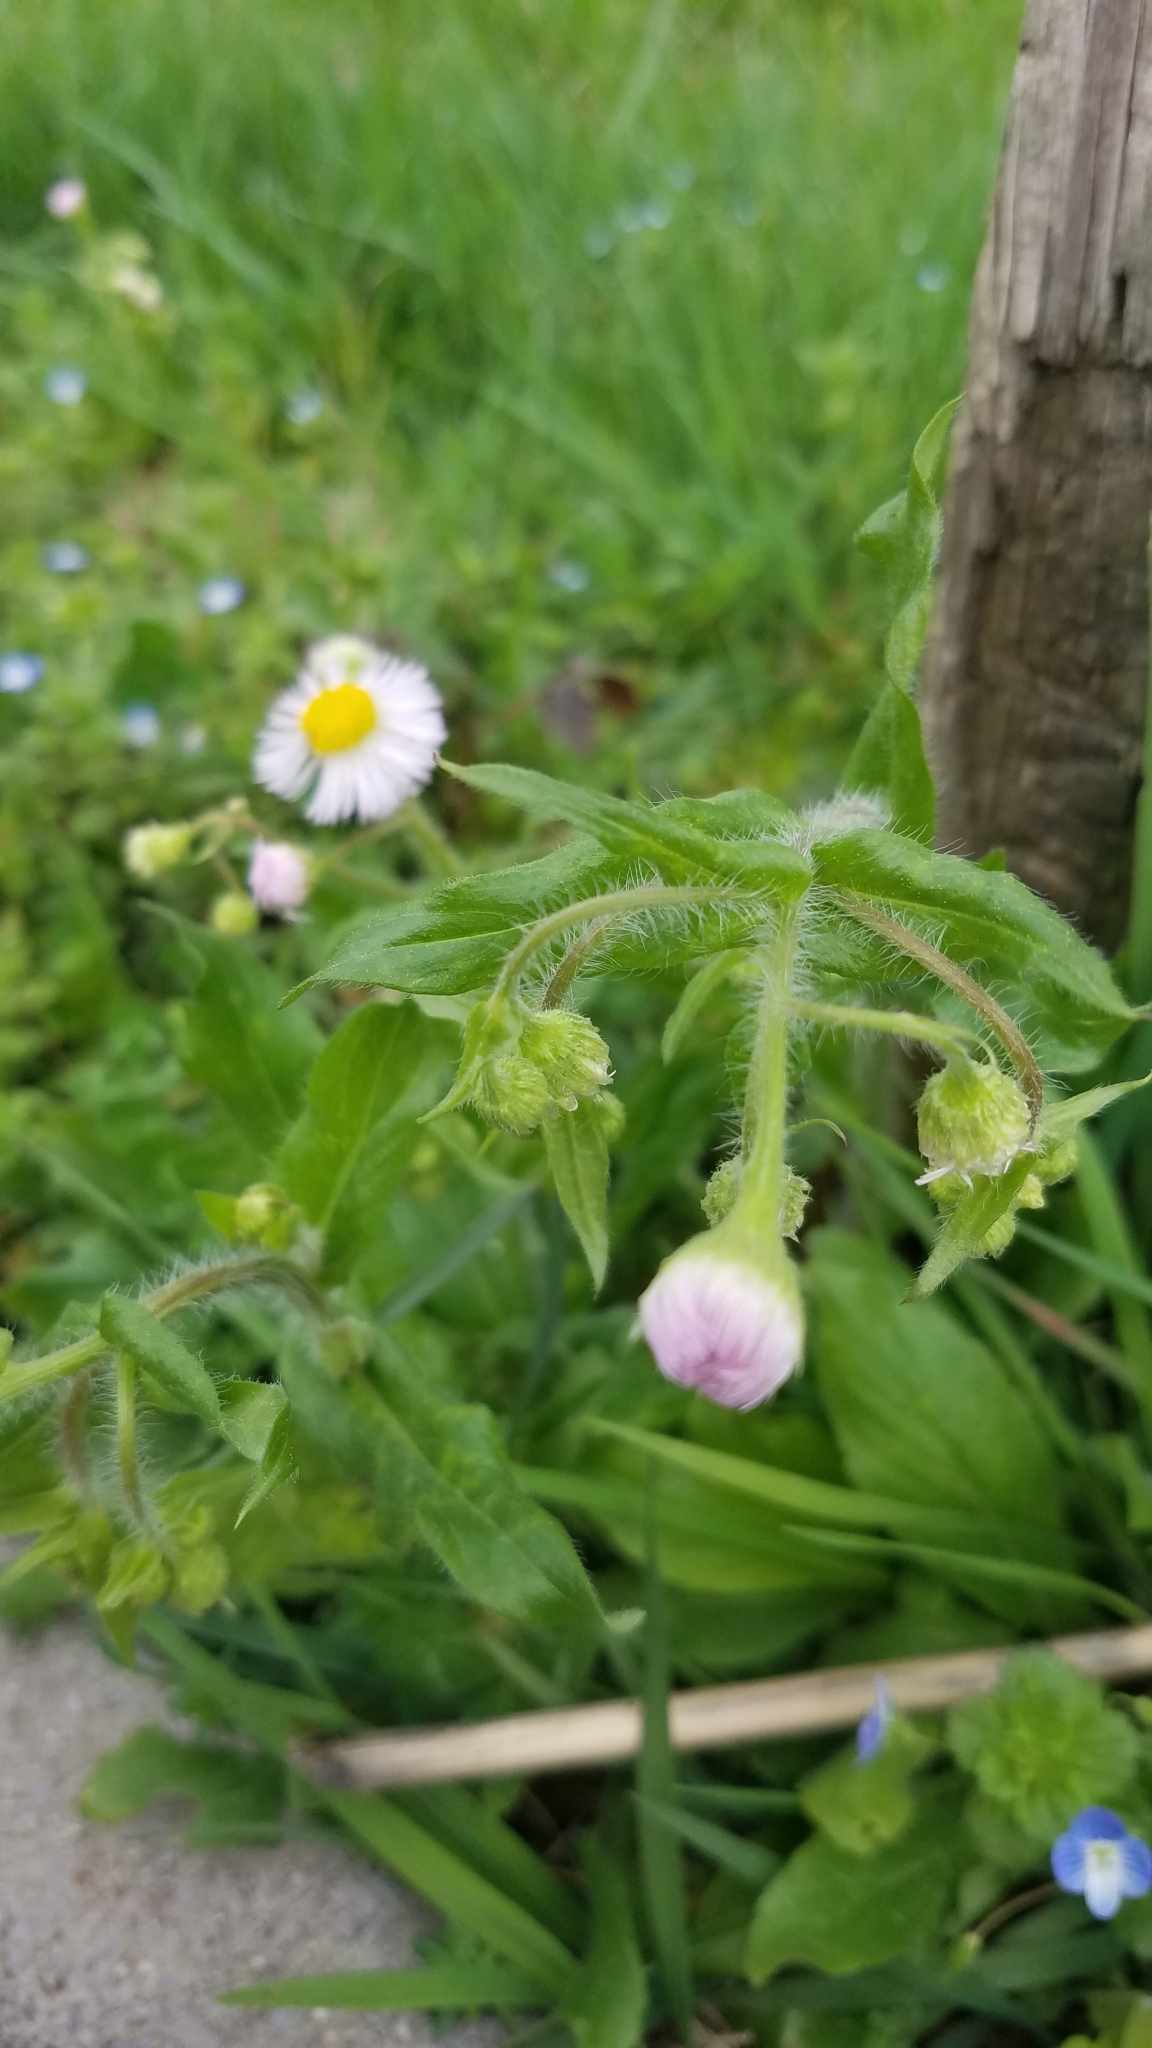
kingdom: Plantae
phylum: Tracheophyta
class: Magnoliopsida
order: Asterales
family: Asteraceae
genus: Erigeron
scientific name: Erigeron philadelphicus
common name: Robin's-plantain
